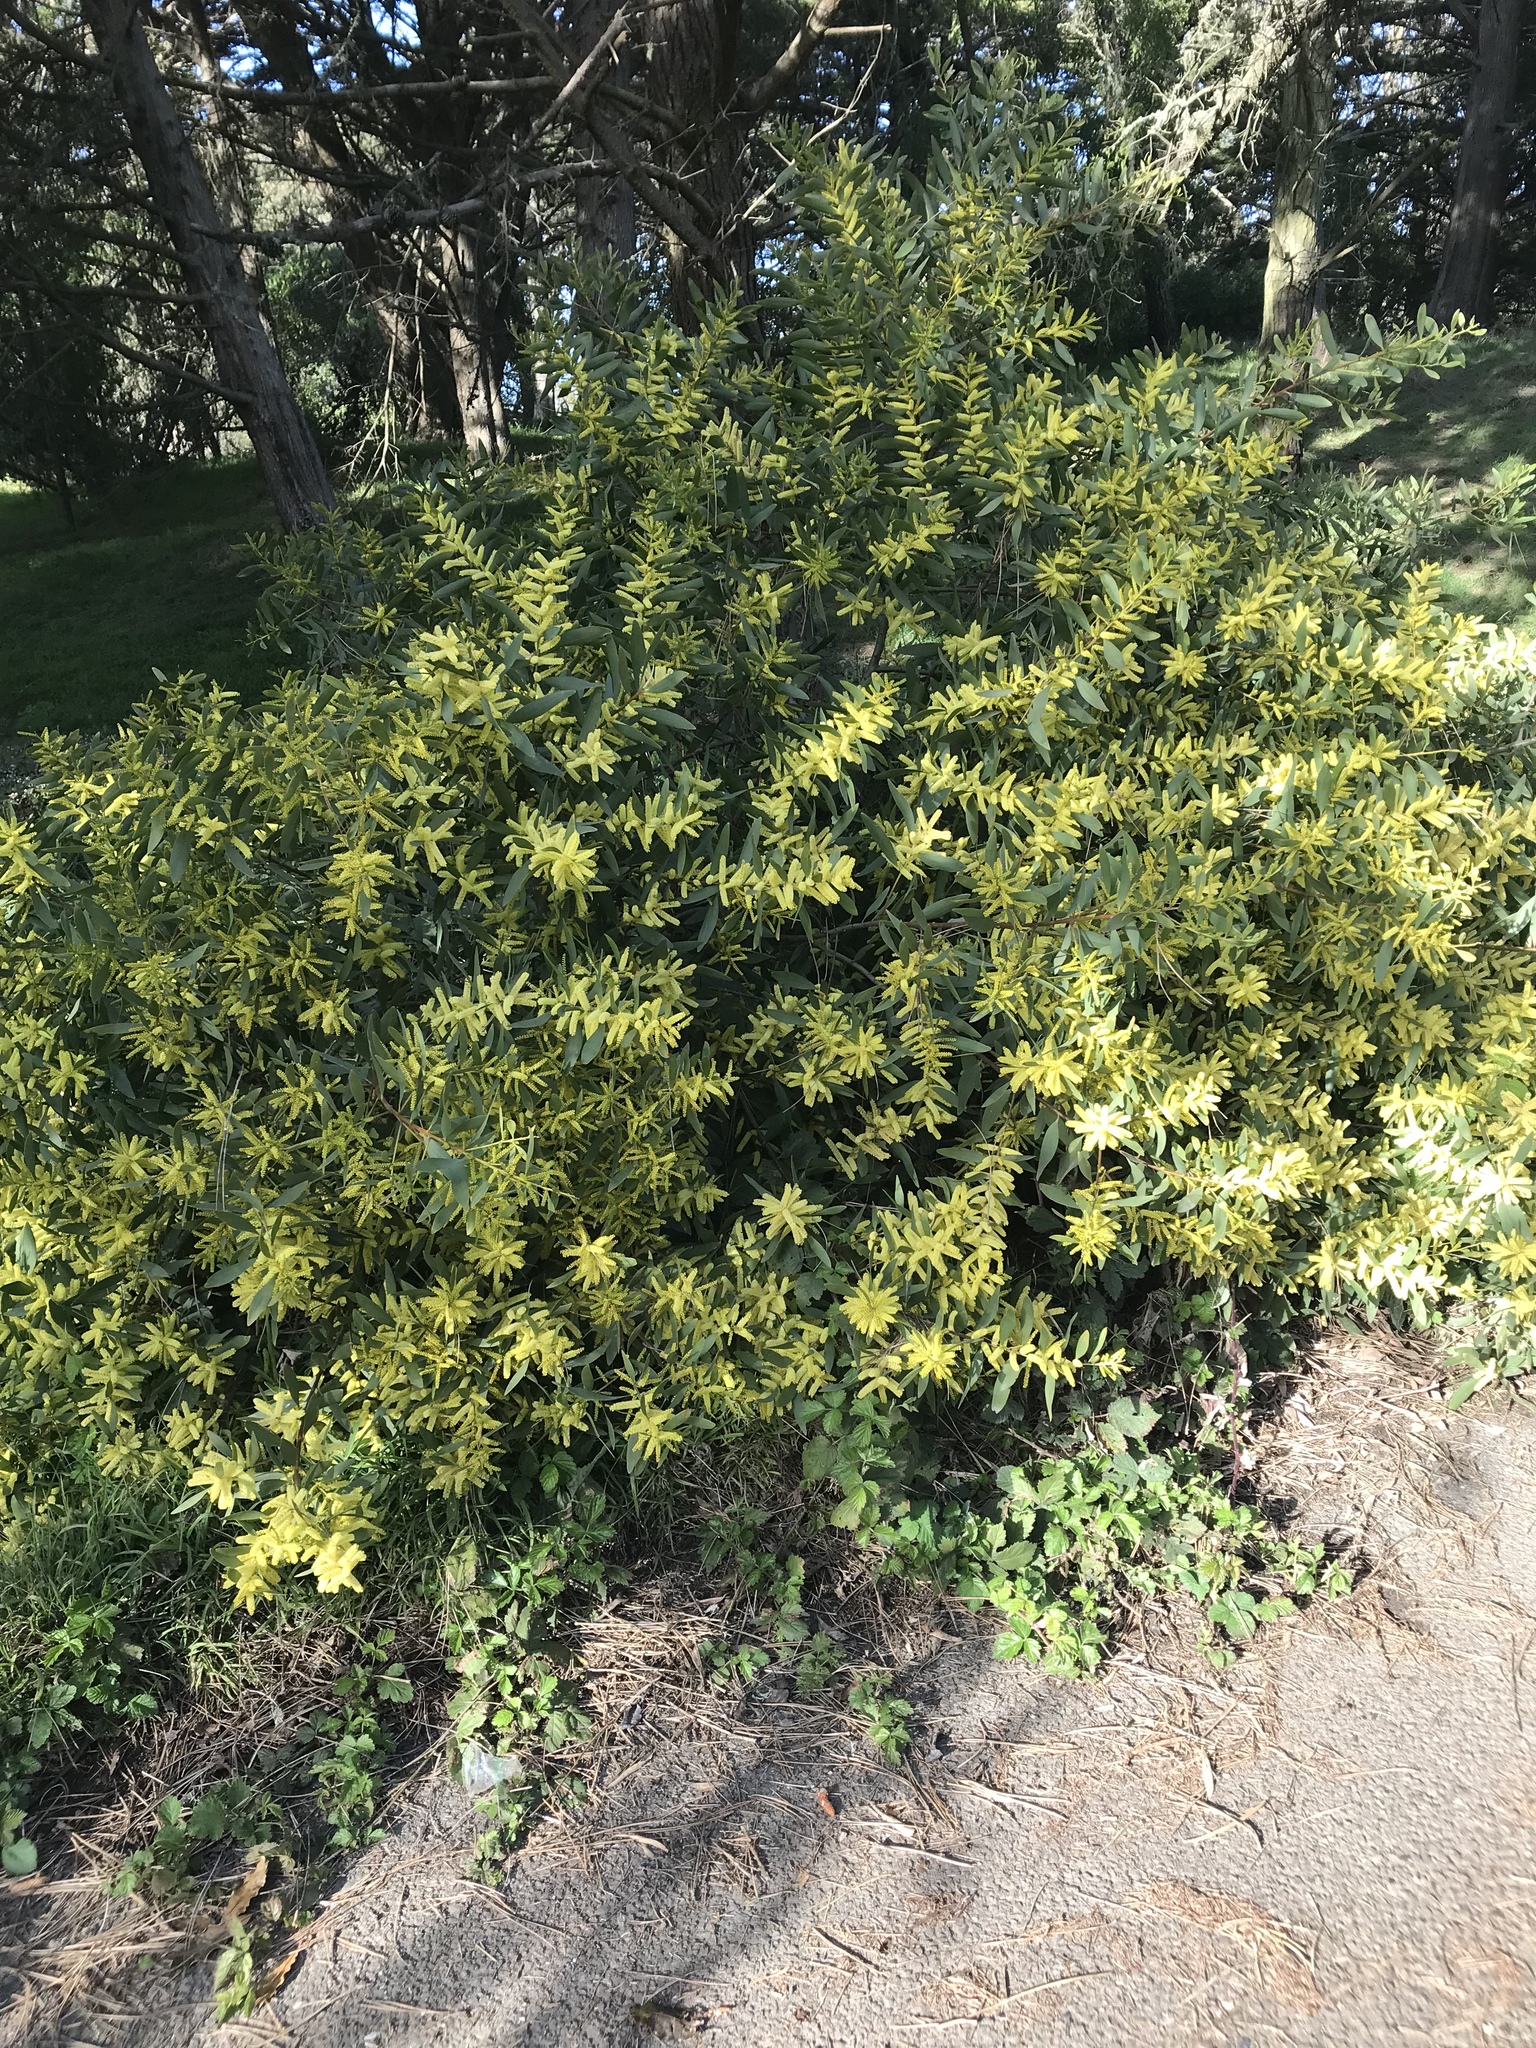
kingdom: Plantae
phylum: Tracheophyta
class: Magnoliopsida
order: Fabales
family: Fabaceae
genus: Acacia
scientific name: Acacia longifolia
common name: Sydney golden wattle
